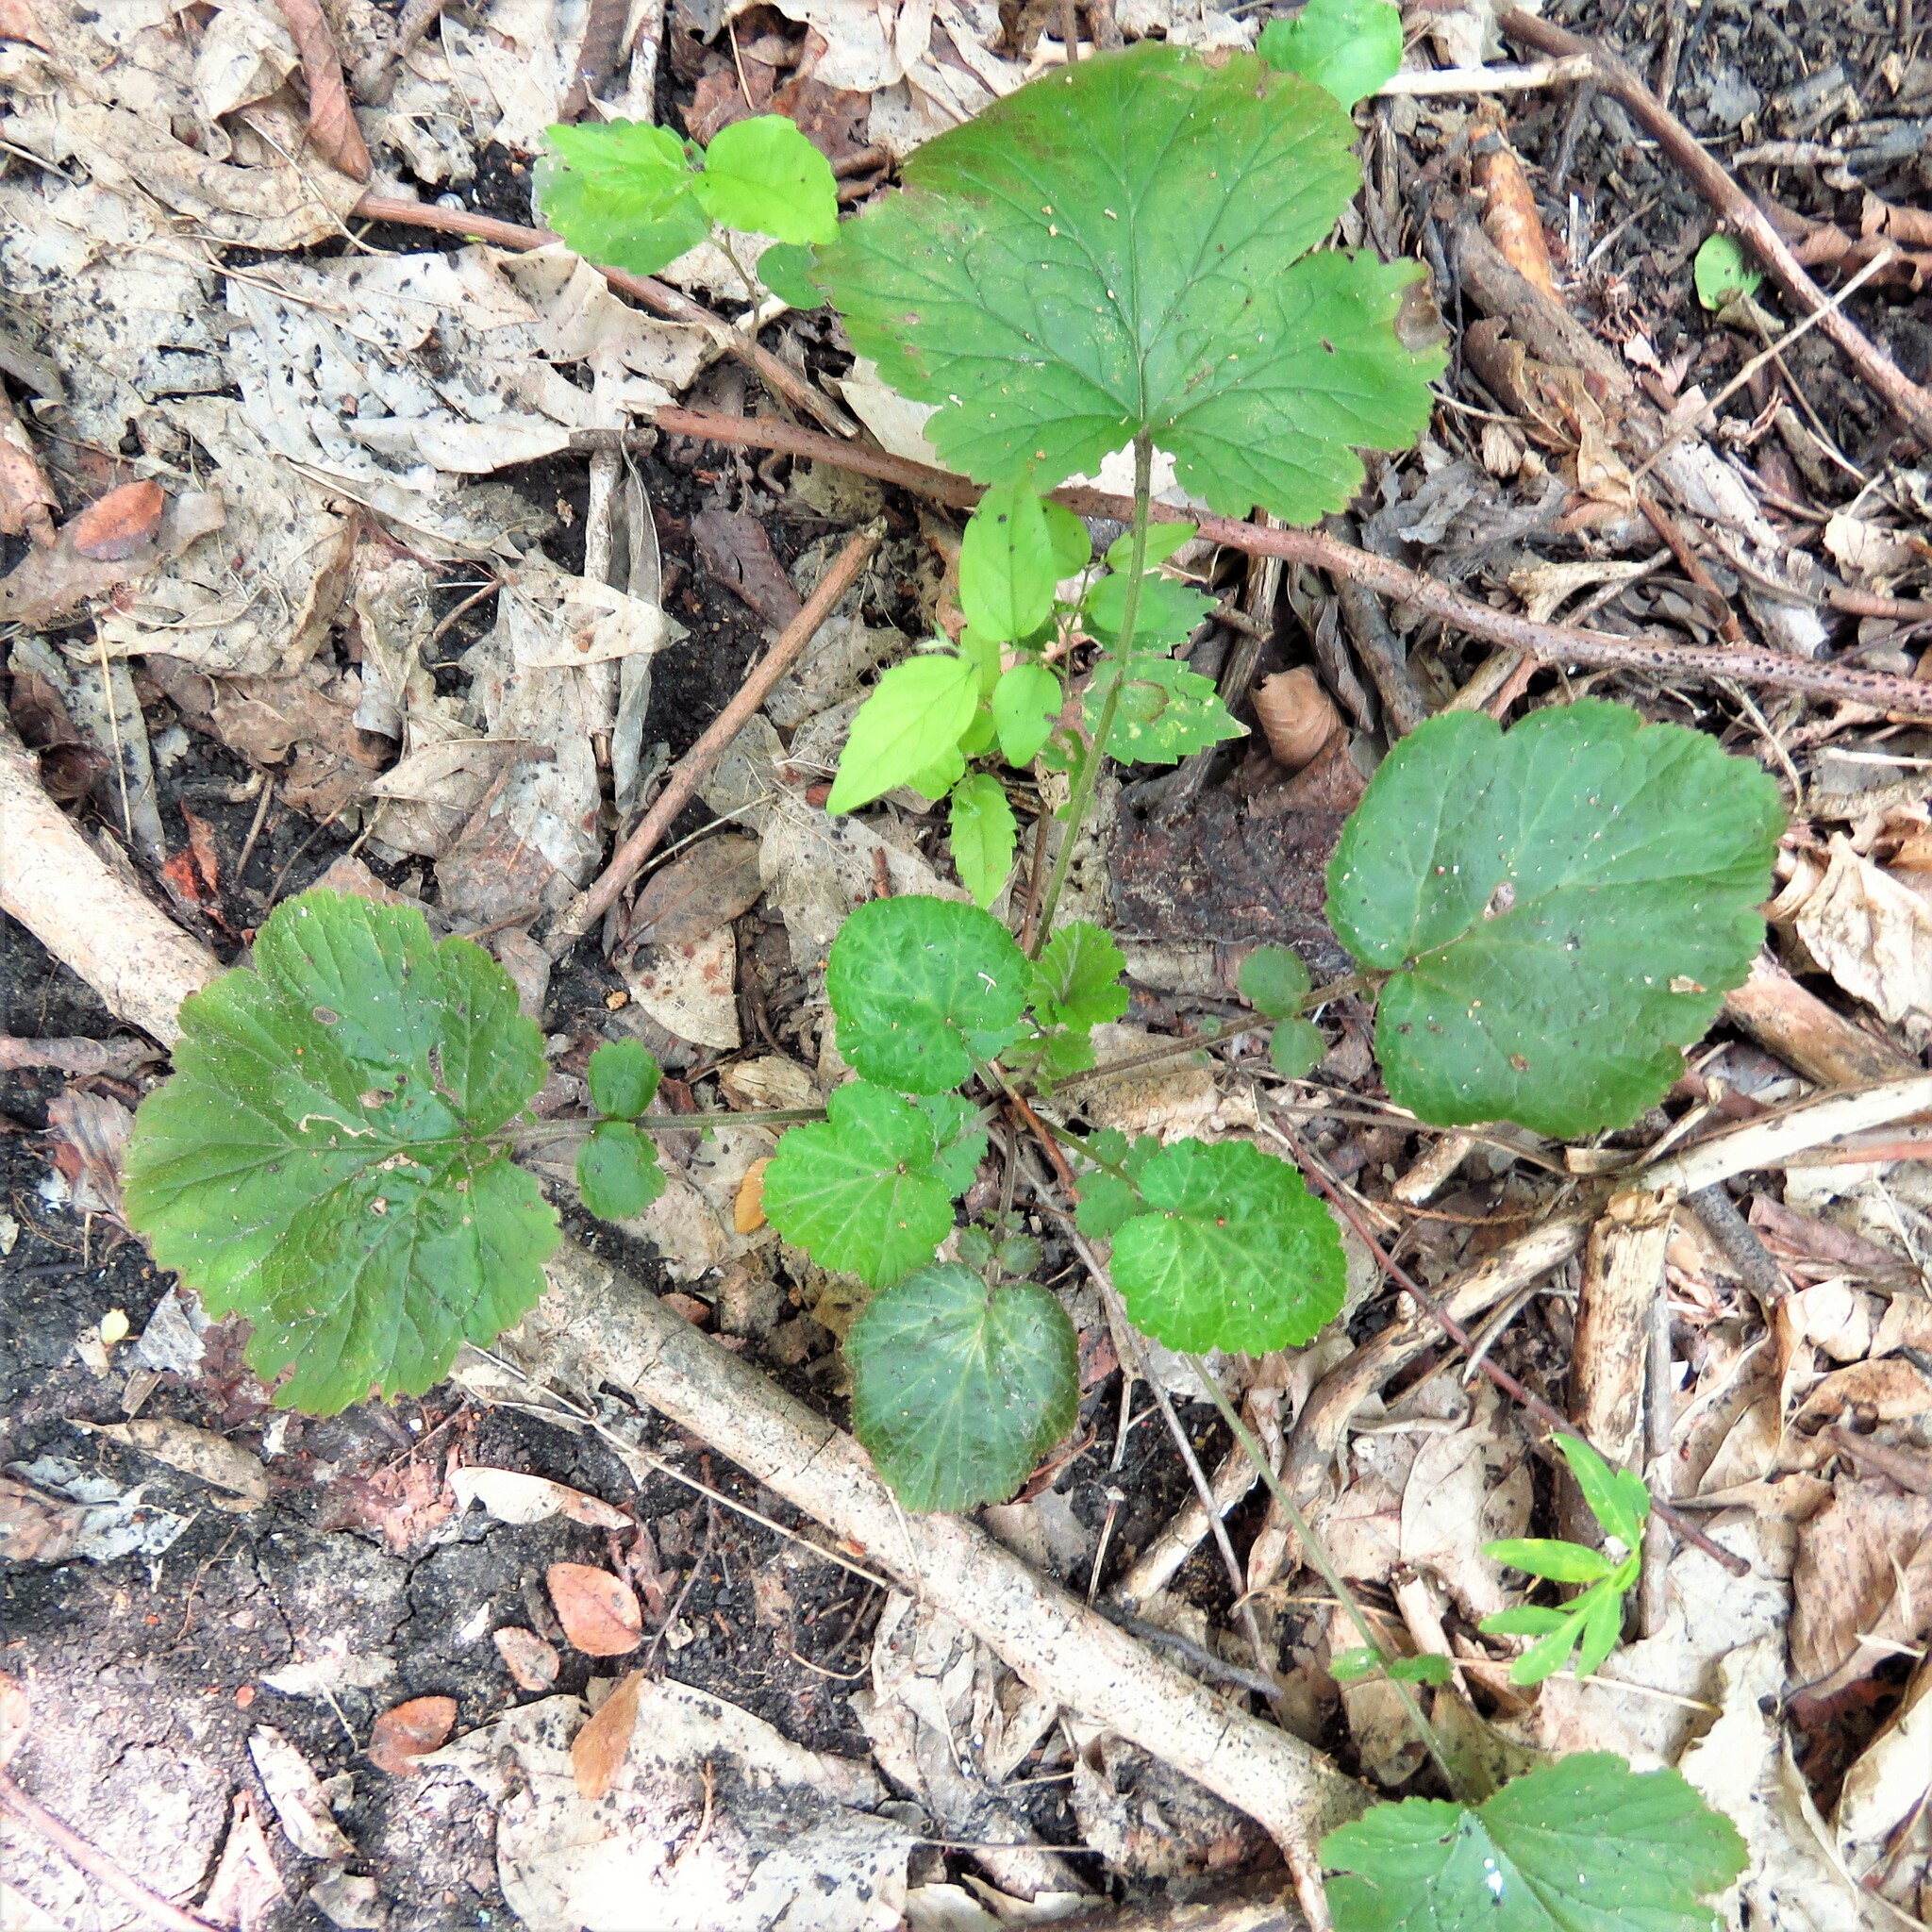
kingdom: Plantae
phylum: Tracheophyta
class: Magnoliopsida
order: Rosales
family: Rosaceae
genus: Geum
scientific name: Geum canadense
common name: White avens
